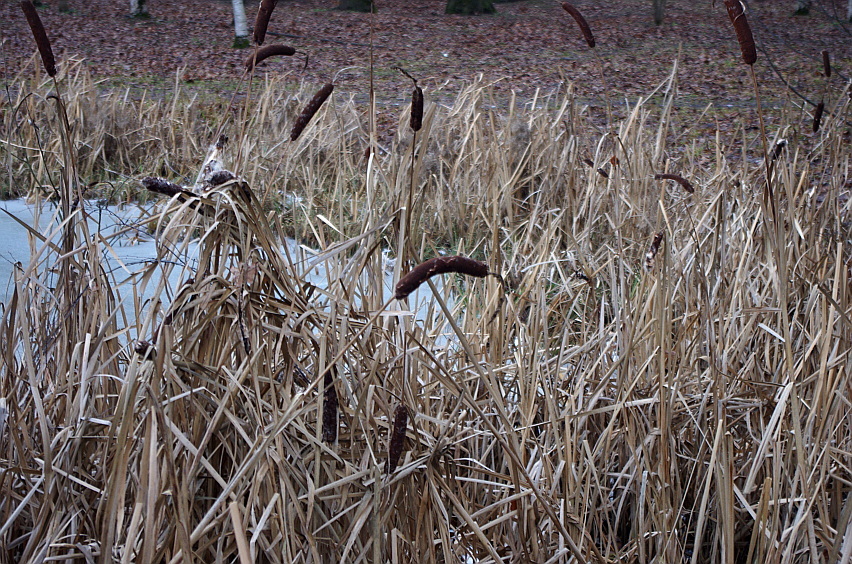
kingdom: Plantae
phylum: Tracheophyta
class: Liliopsida
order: Poales
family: Typhaceae
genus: Typha
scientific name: Typha latifolia
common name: Broadleaf cattail
